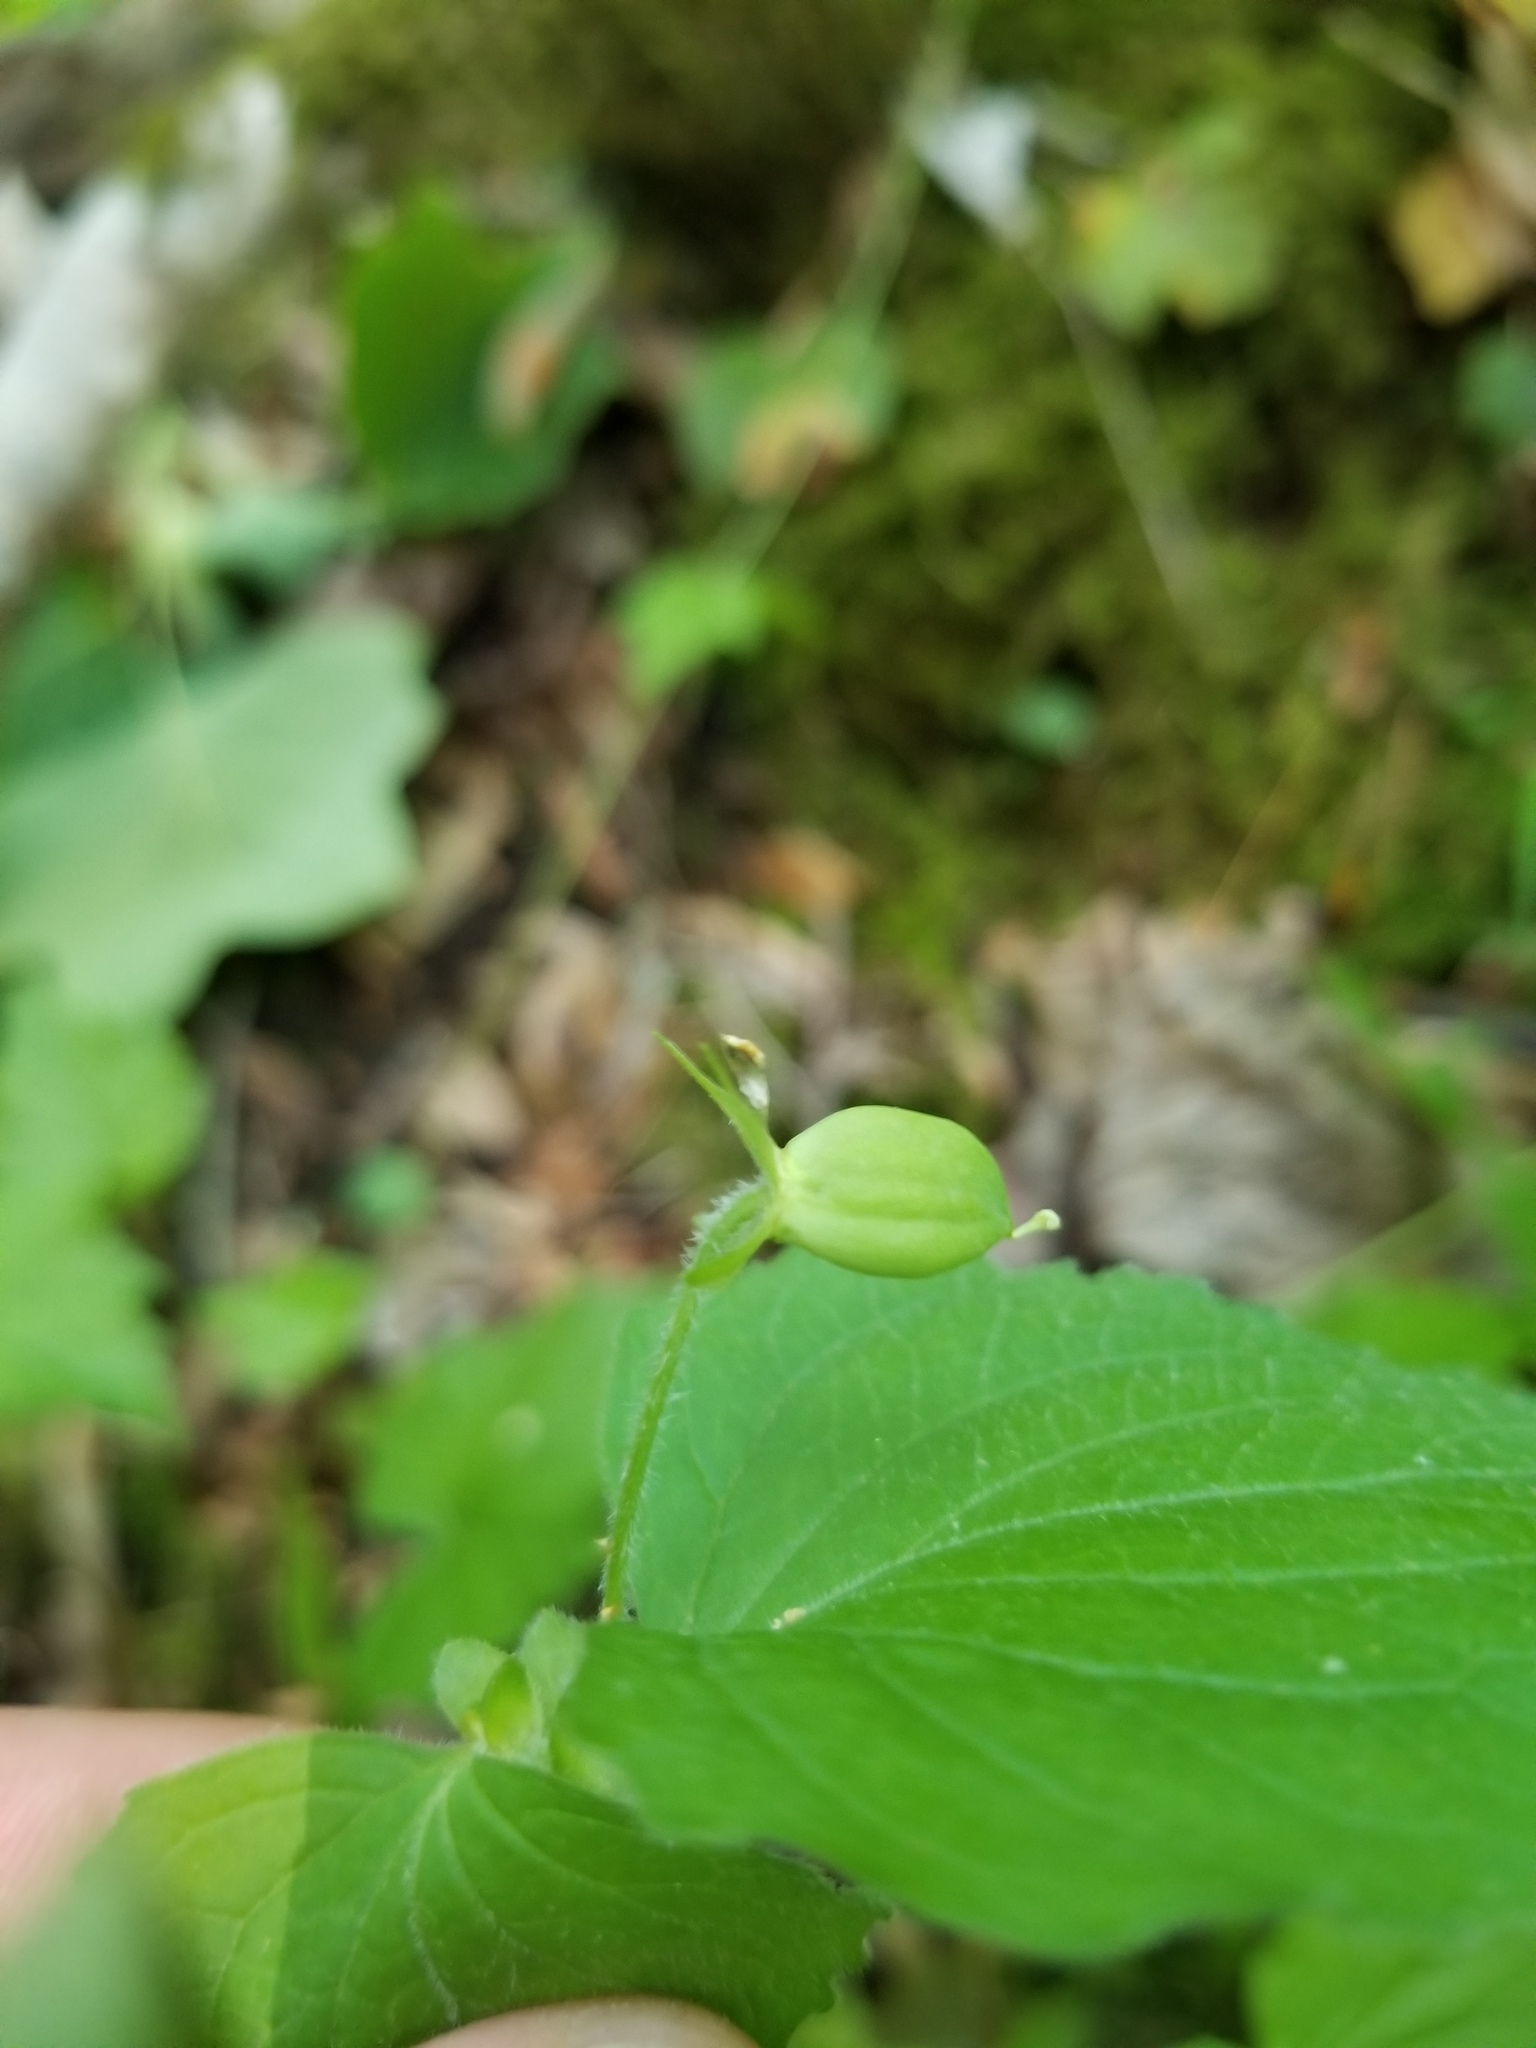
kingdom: Plantae
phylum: Tracheophyta
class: Magnoliopsida
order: Malpighiales
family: Violaceae
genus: Viola
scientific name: Viola pubescens
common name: Yellow forest violet
